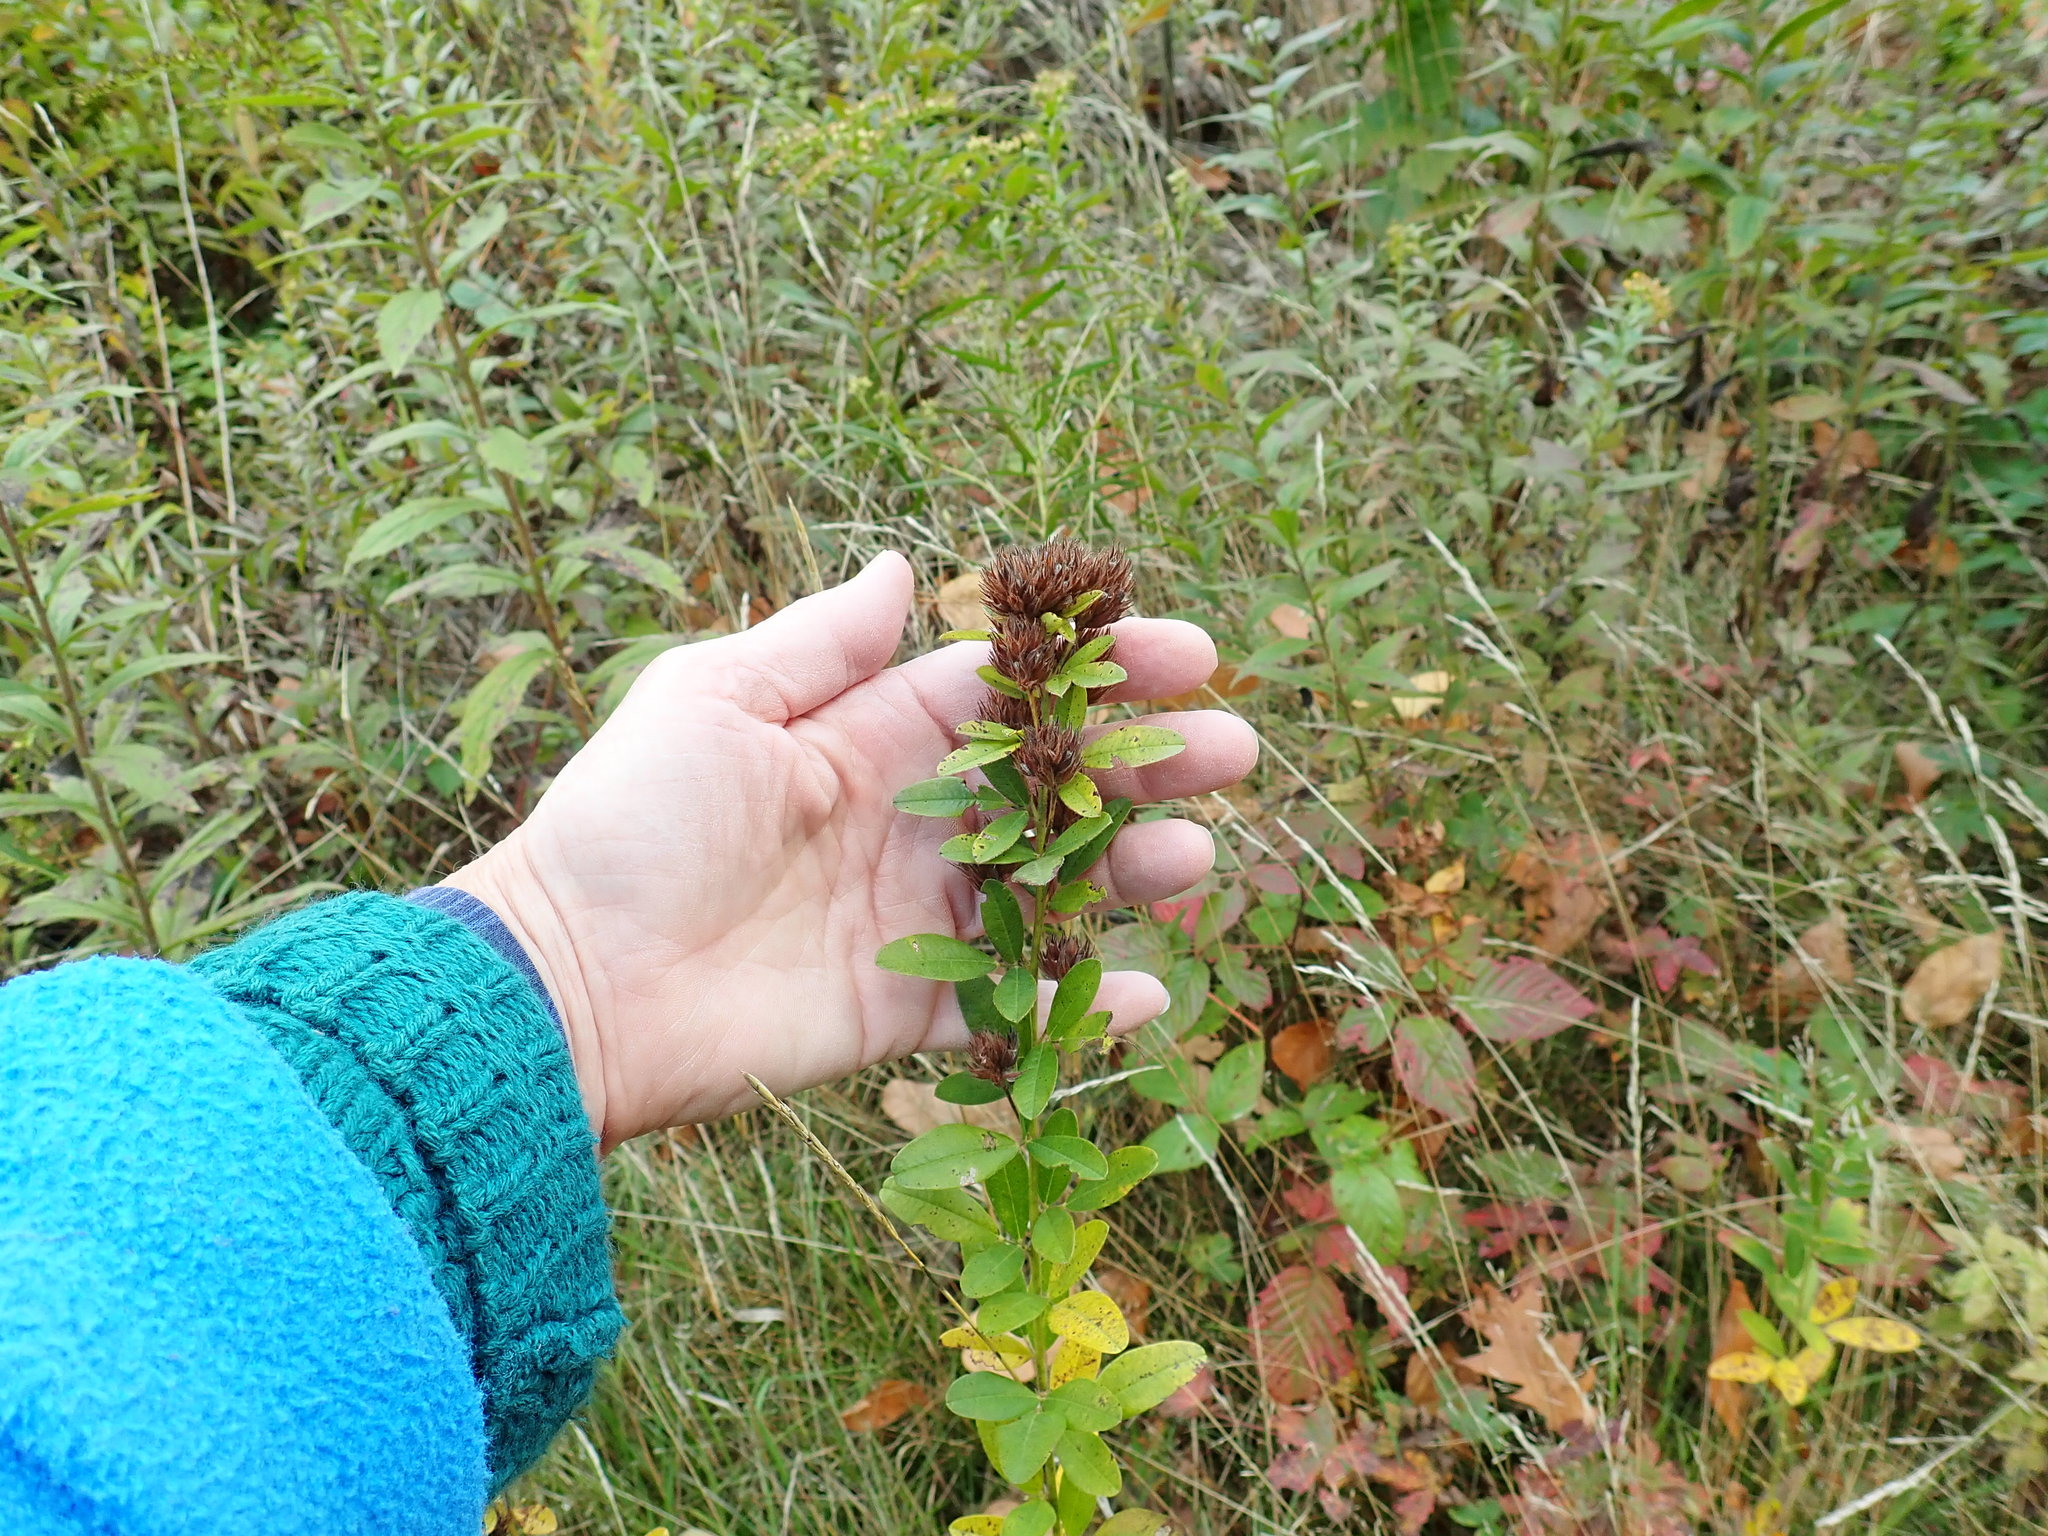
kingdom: Plantae
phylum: Tracheophyta
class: Magnoliopsida
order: Fabales
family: Fabaceae
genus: Lespedeza
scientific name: Lespedeza capitata
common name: Dusty clover
